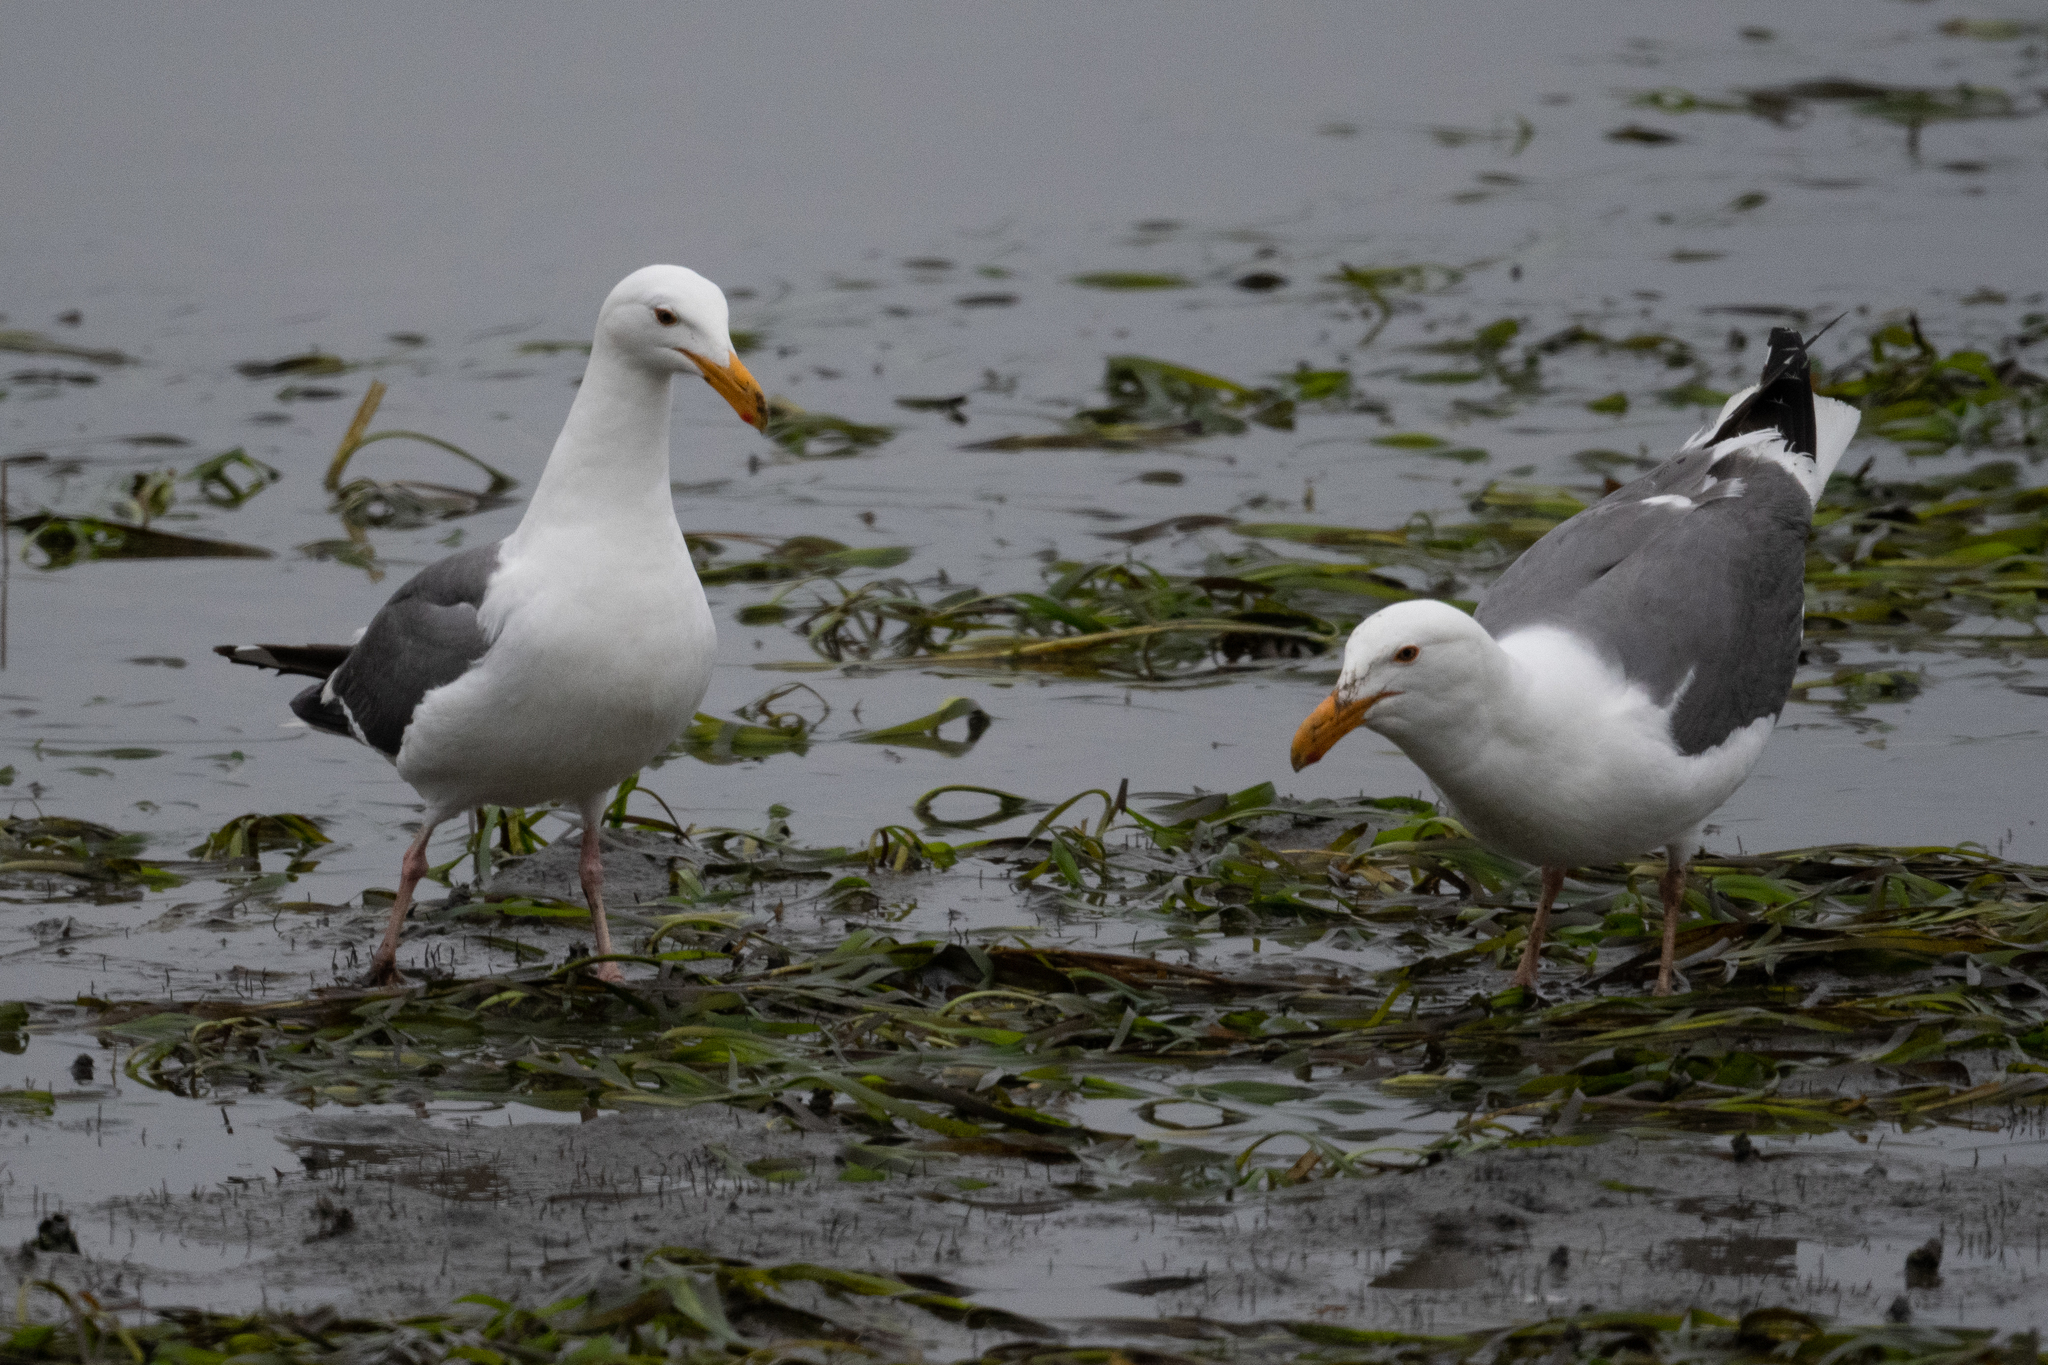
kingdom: Animalia
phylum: Chordata
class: Aves
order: Charadriiformes
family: Laridae
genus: Larus
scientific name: Larus occidentalis
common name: Western gull
